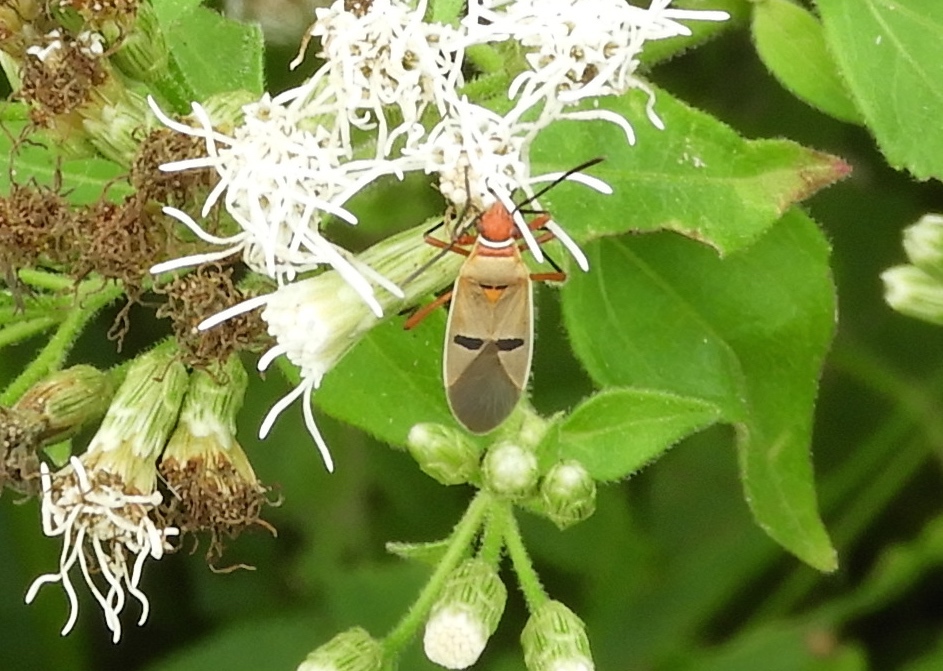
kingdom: Animalia
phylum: Arthropoda
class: Insecta
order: Hemiptera
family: Pyrrhocoridae
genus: Dysdercus
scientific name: Dysdercus
